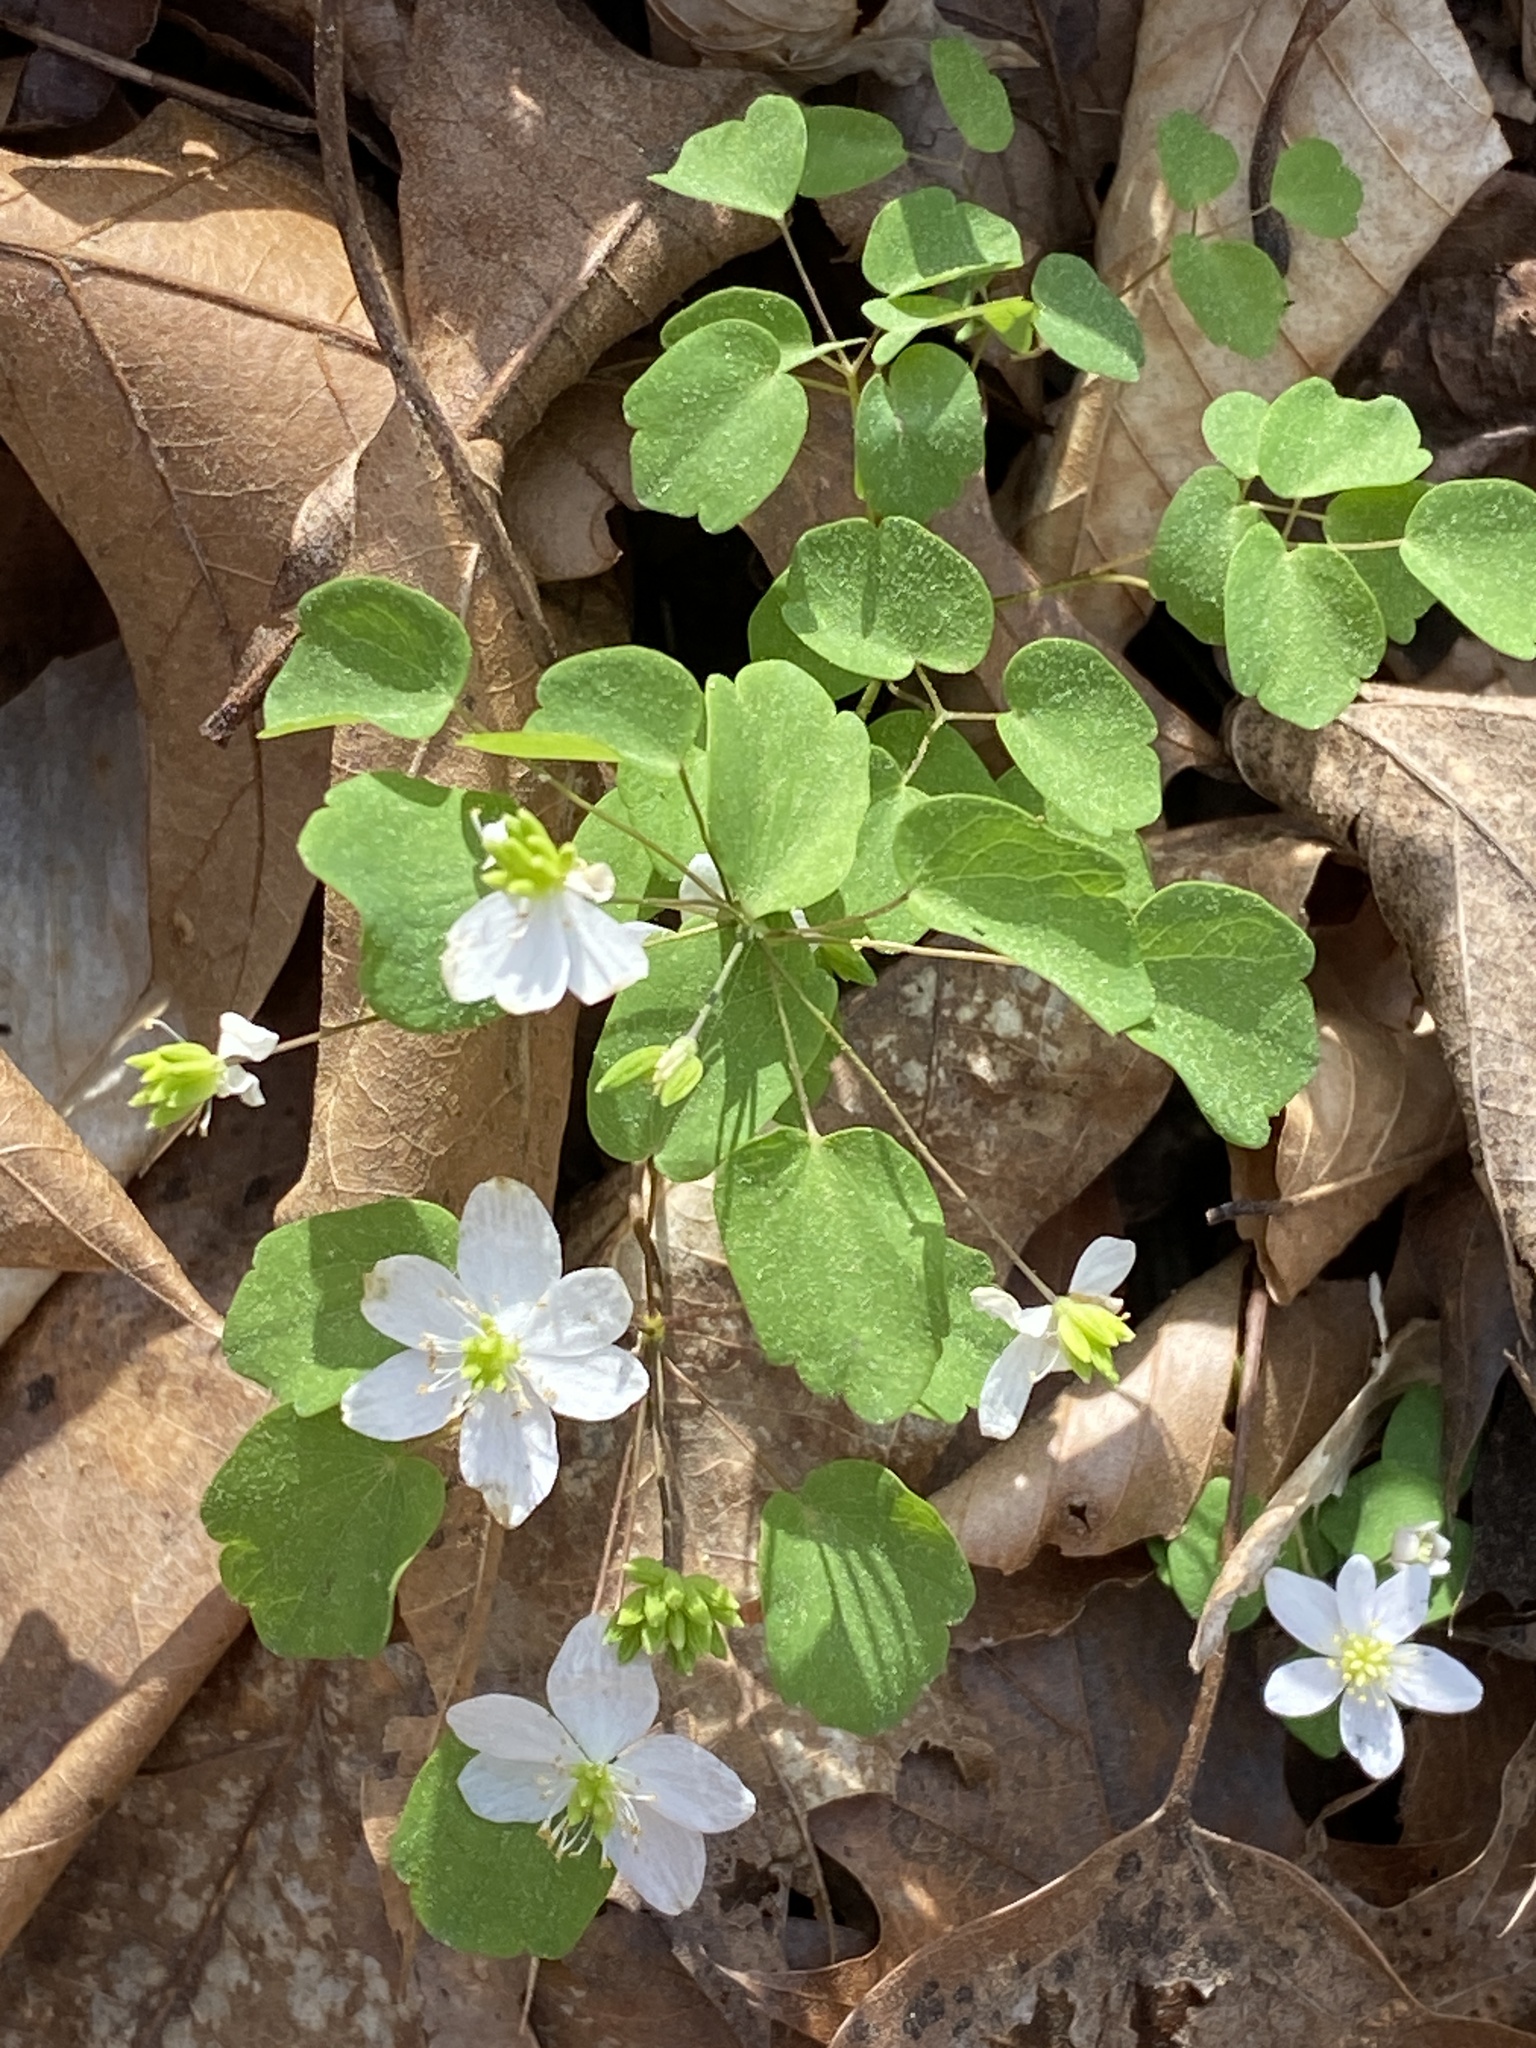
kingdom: Plantae
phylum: Tracheophyta
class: Magnoliopsida
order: Ranunculales
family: Ranunculaceae
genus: Thalictrum
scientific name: Thalictrum thalictroides
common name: Rue-anemone
